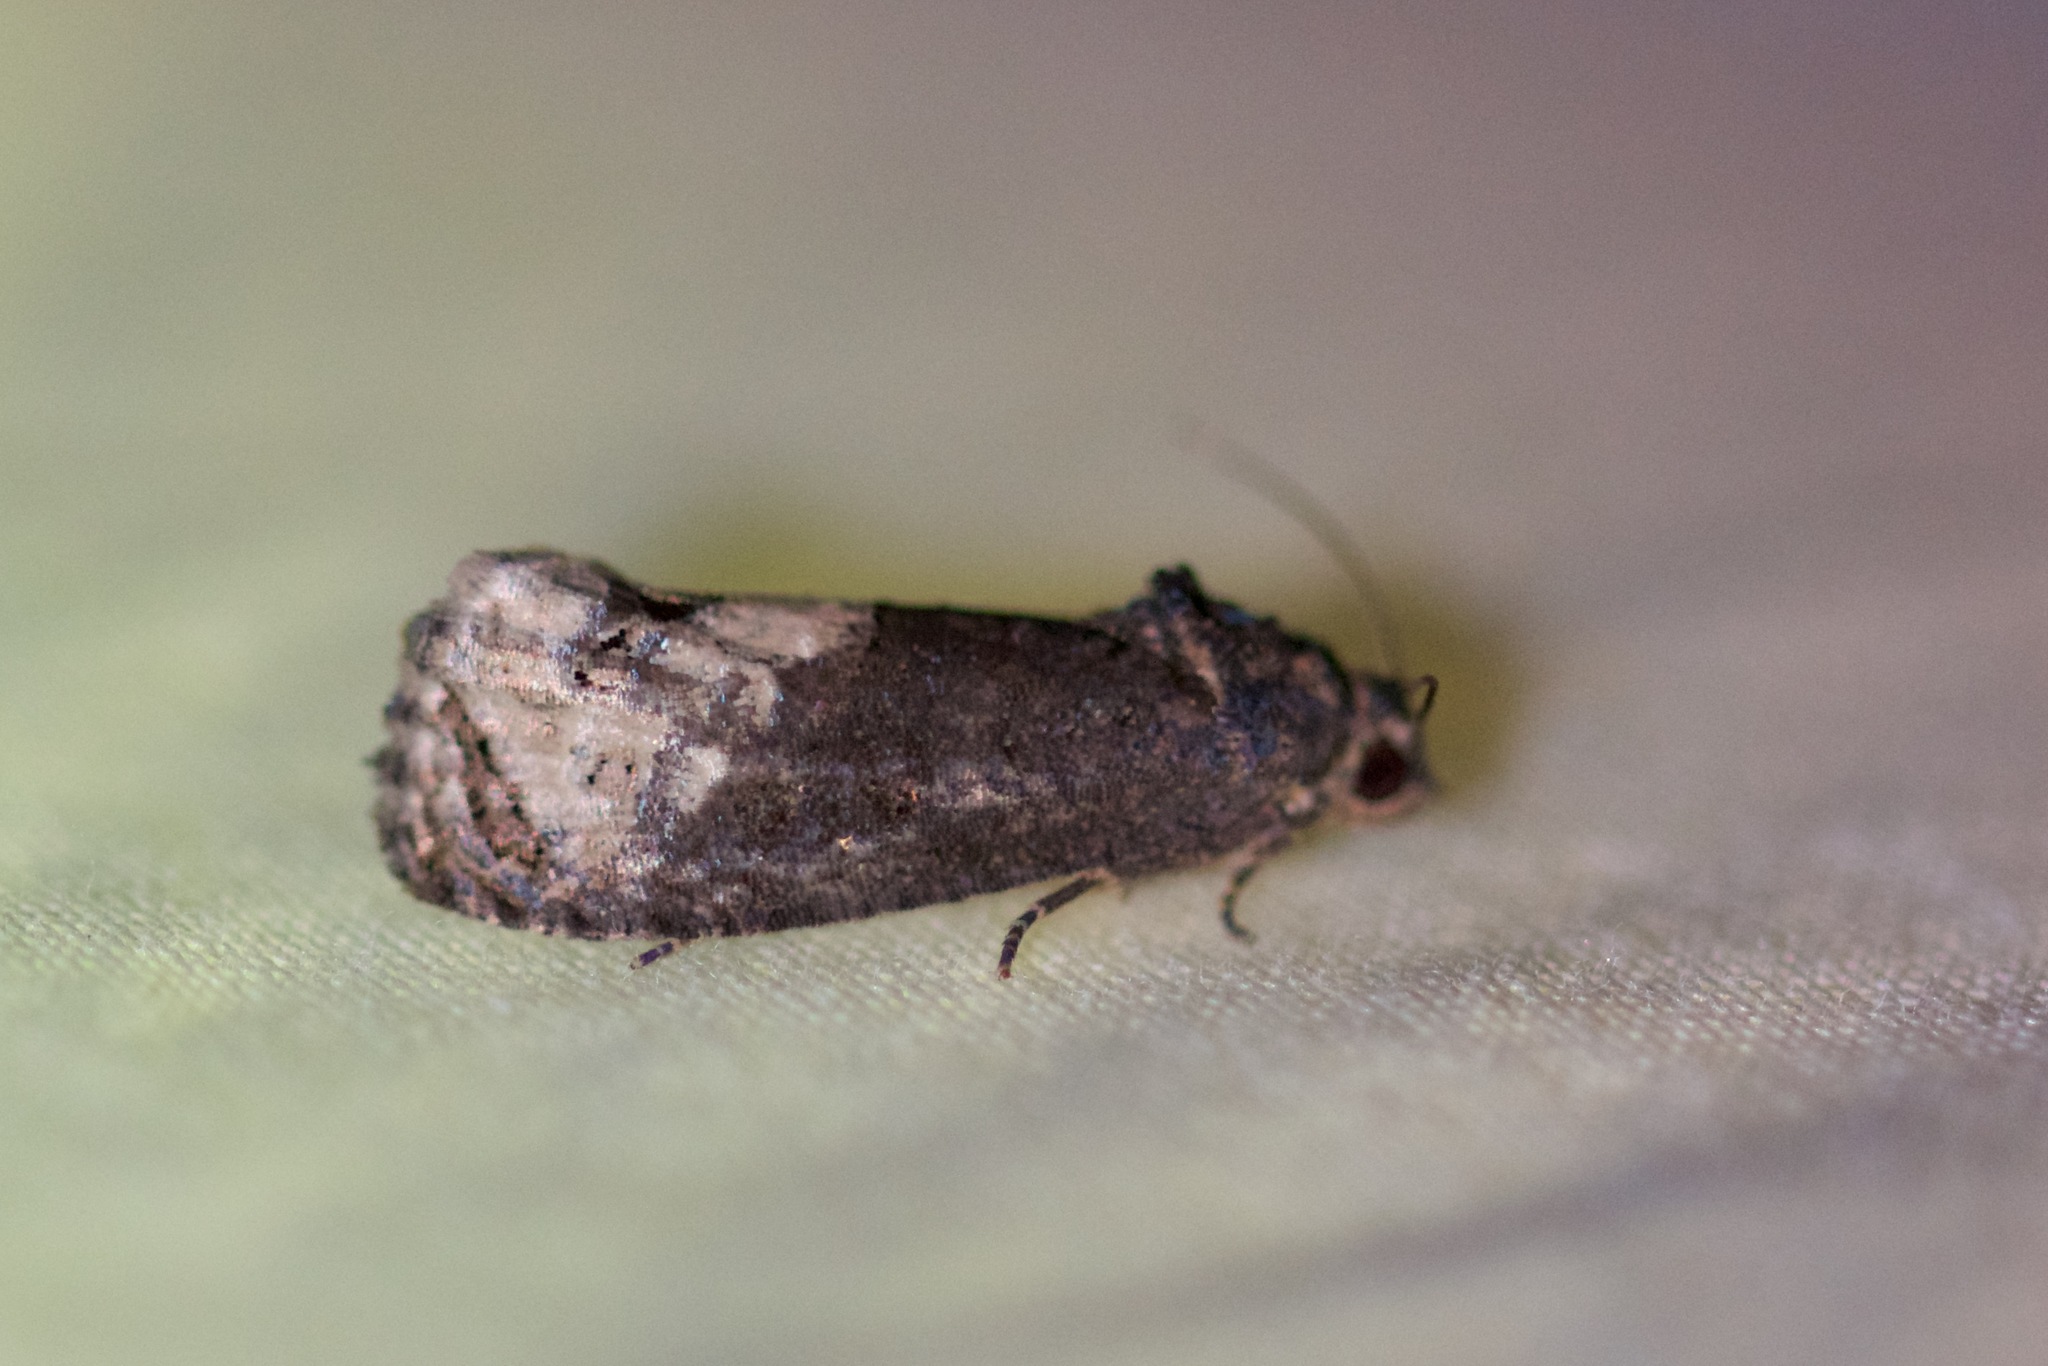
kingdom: Animalia
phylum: Arthropoda
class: Insecta
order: Lepidoptera
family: Tortricidae
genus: Ecdytolopha
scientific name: Ecdytolopha insiticiana
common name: Locust twig borer moth
